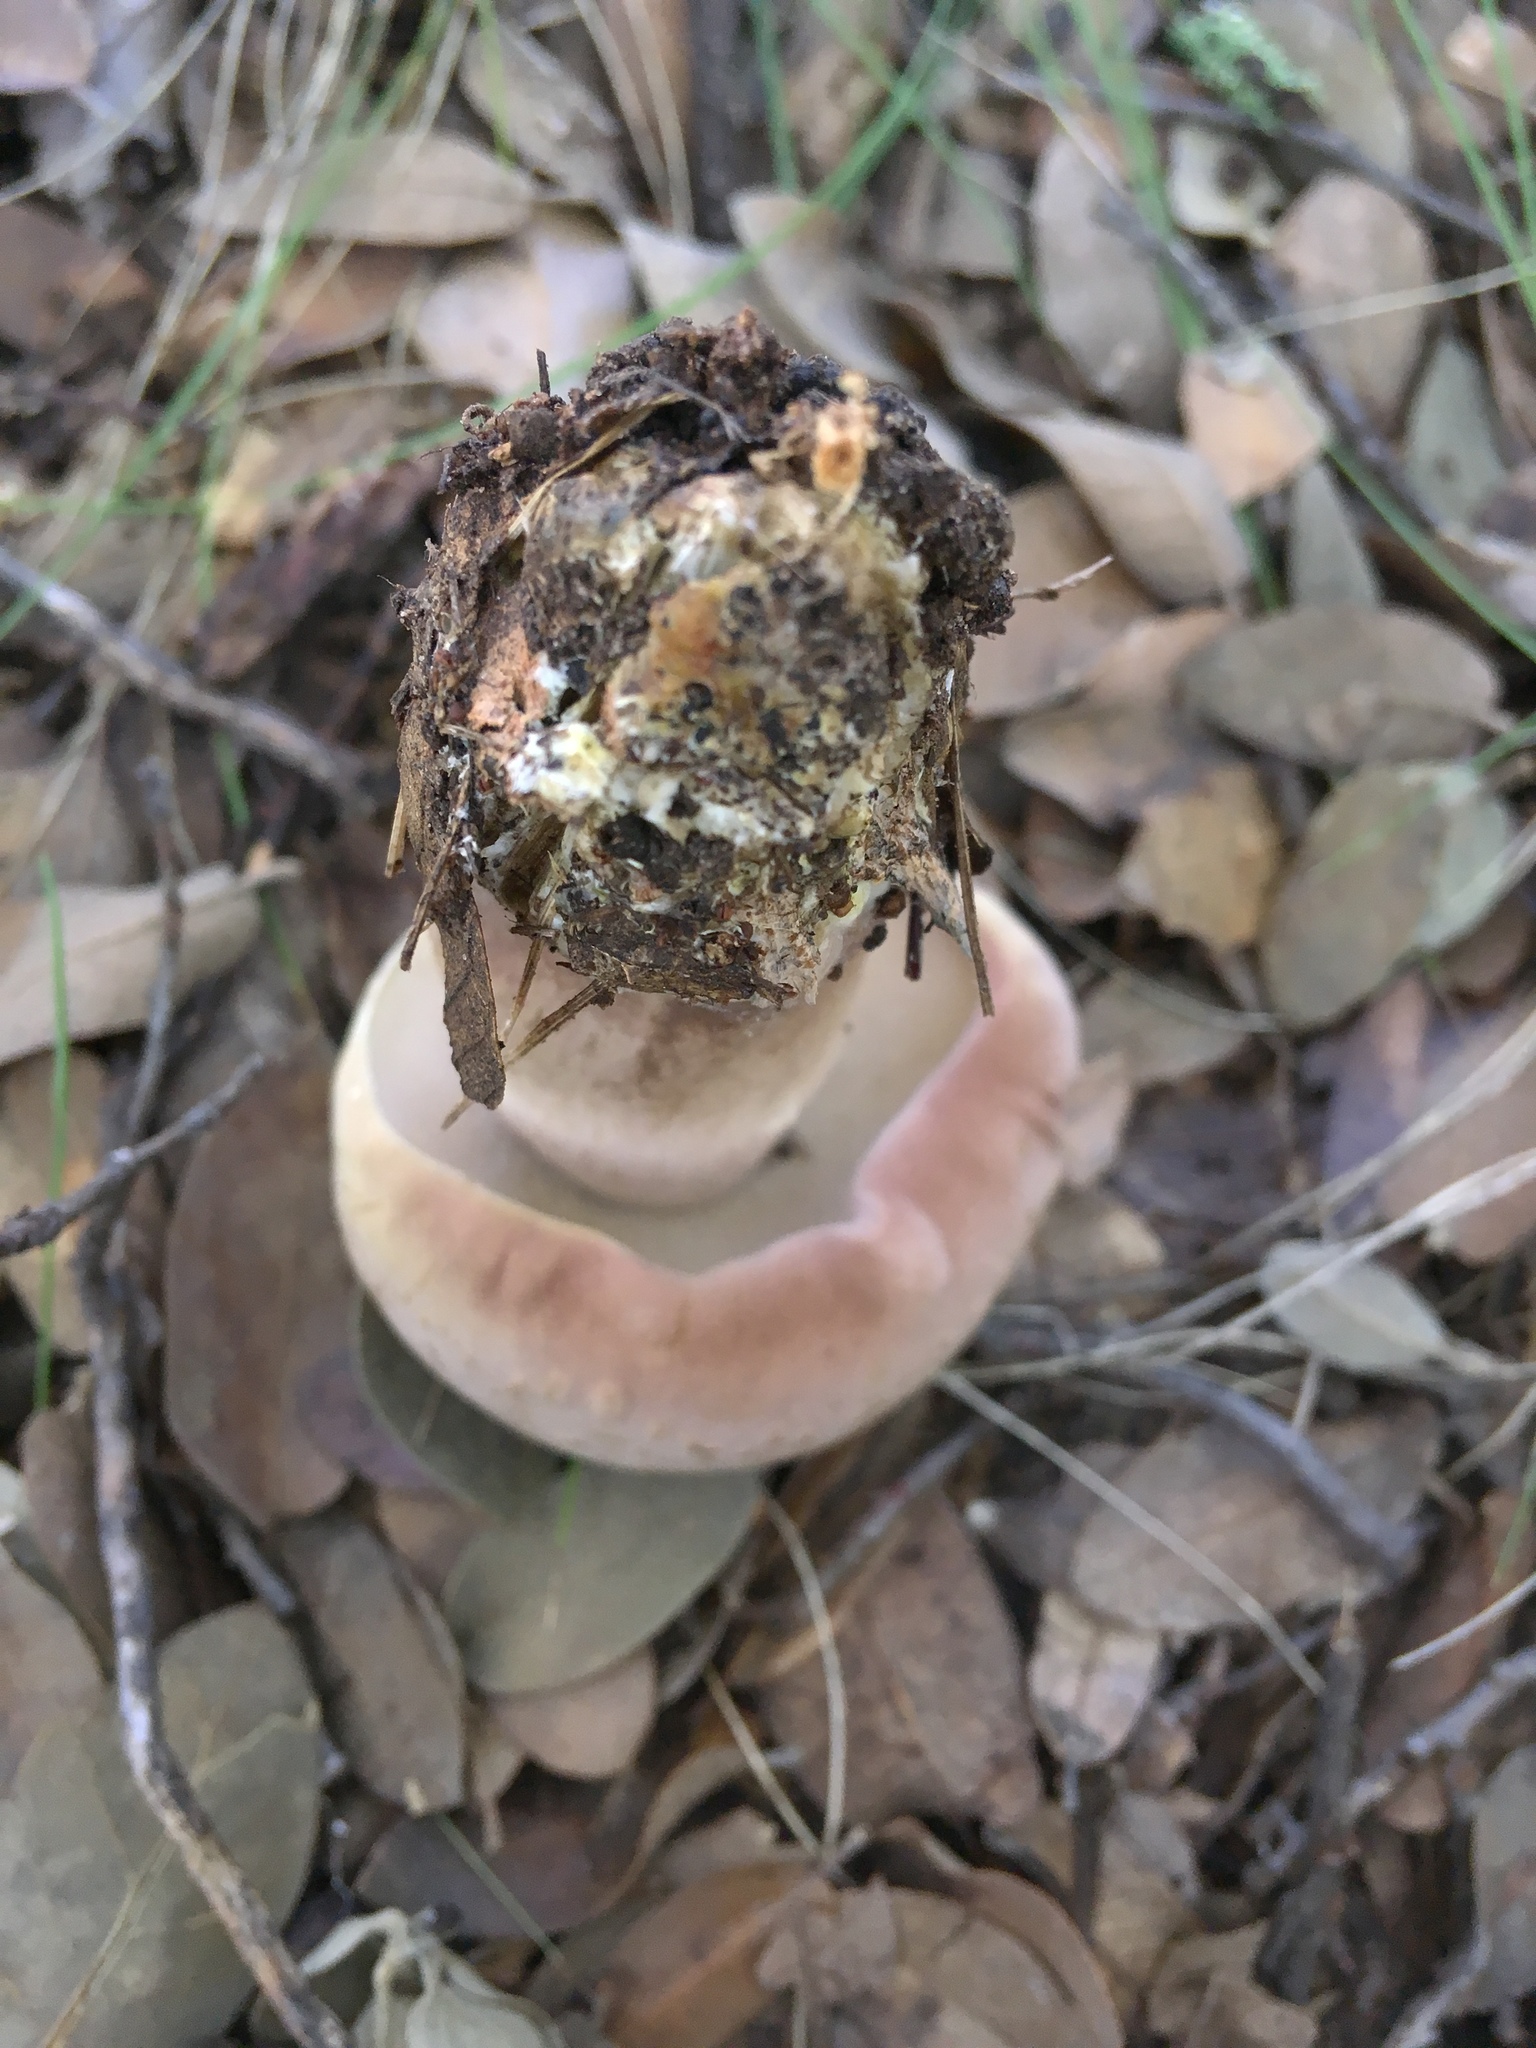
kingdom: Fungi
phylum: Basidiomycota
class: Agaricomycetes
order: Boletales
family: Boletaceae
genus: Tylopilus
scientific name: Tylopilus rubrobrunneus
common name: Reddish brown bitter bolete
